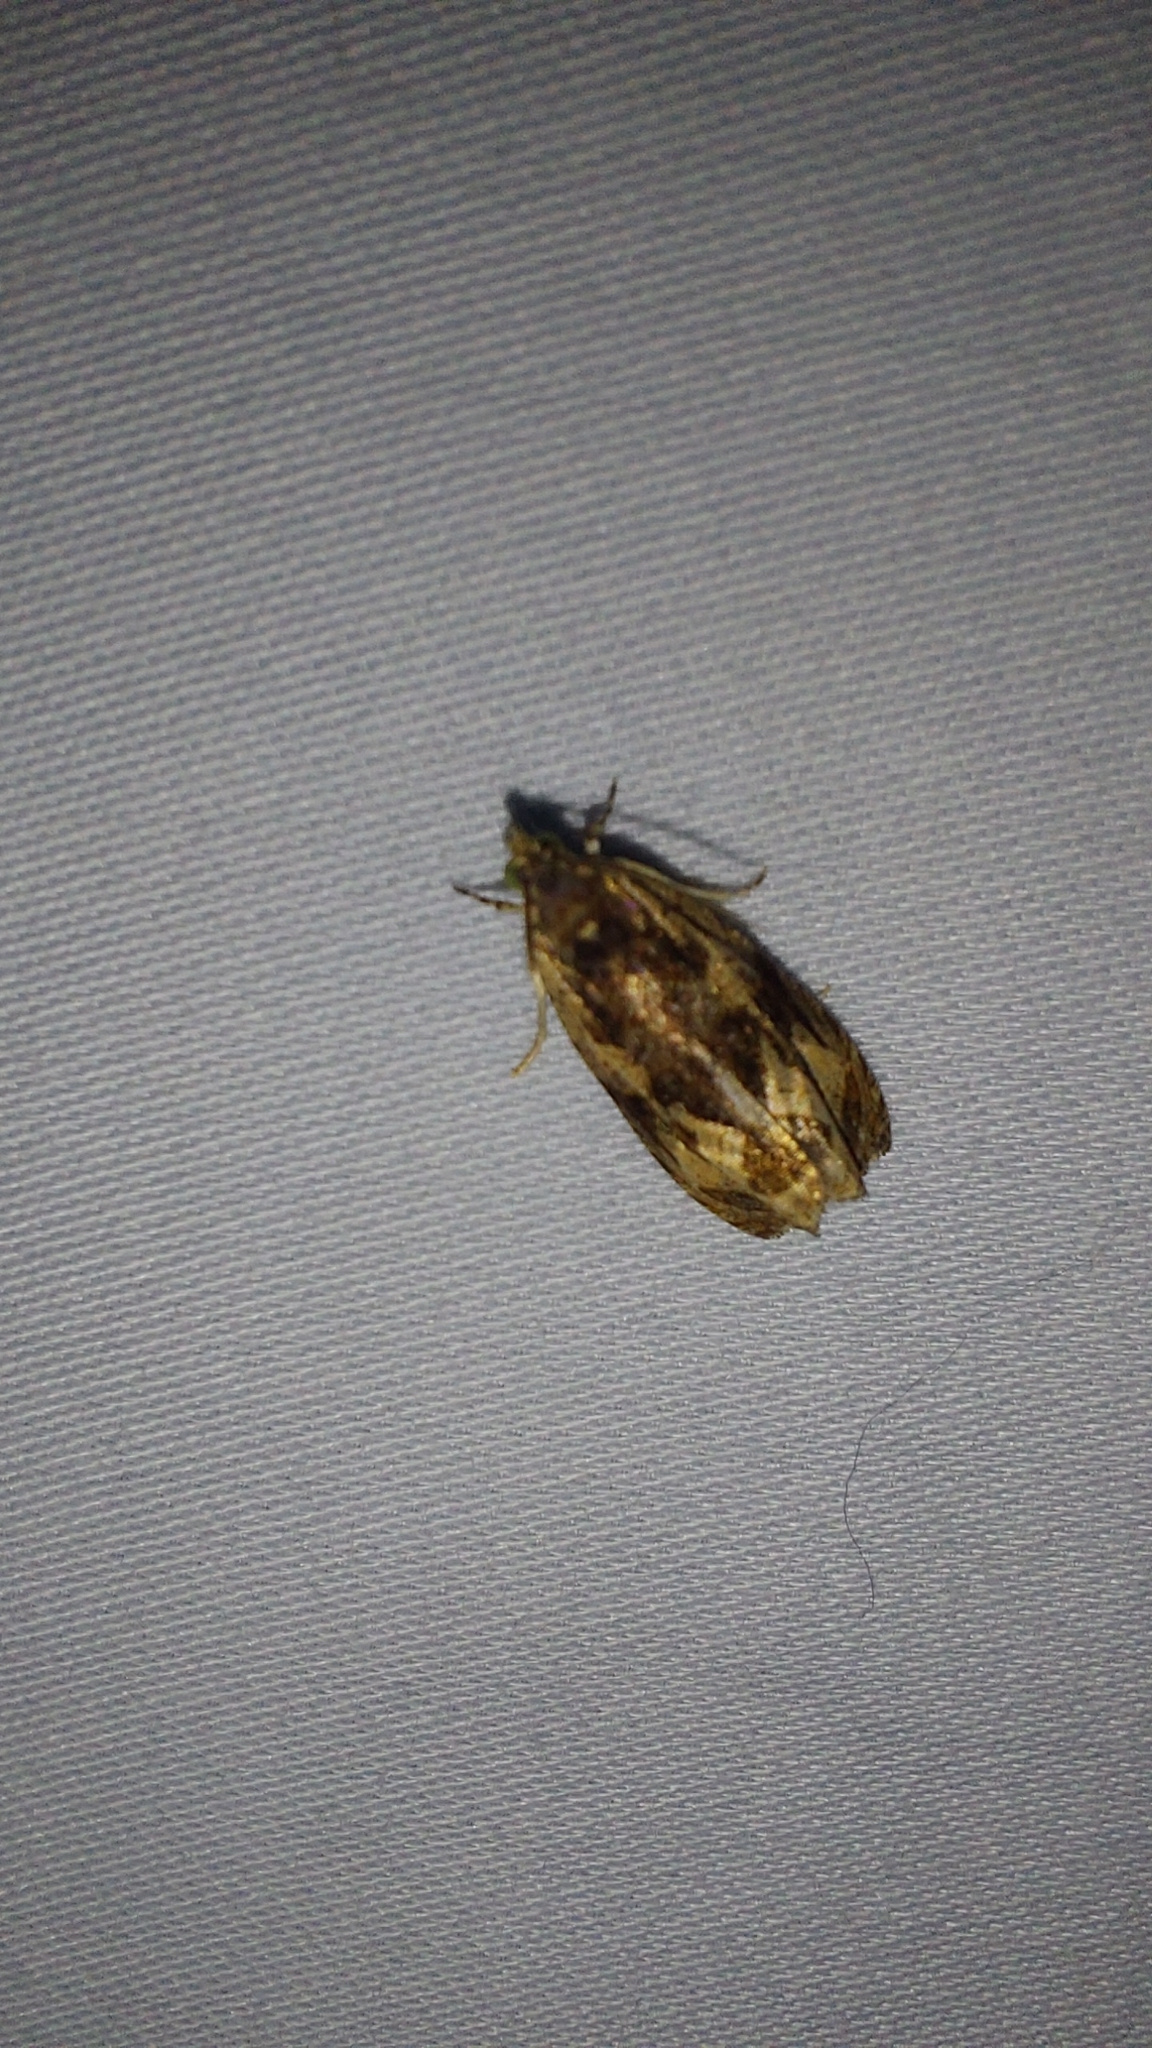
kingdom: Animalia
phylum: Arthropoda
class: Insecta
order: Lepidoptera
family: Tortricidae
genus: Olethreutes
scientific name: Olethreutes nigranum
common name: Variable nigranum moth
